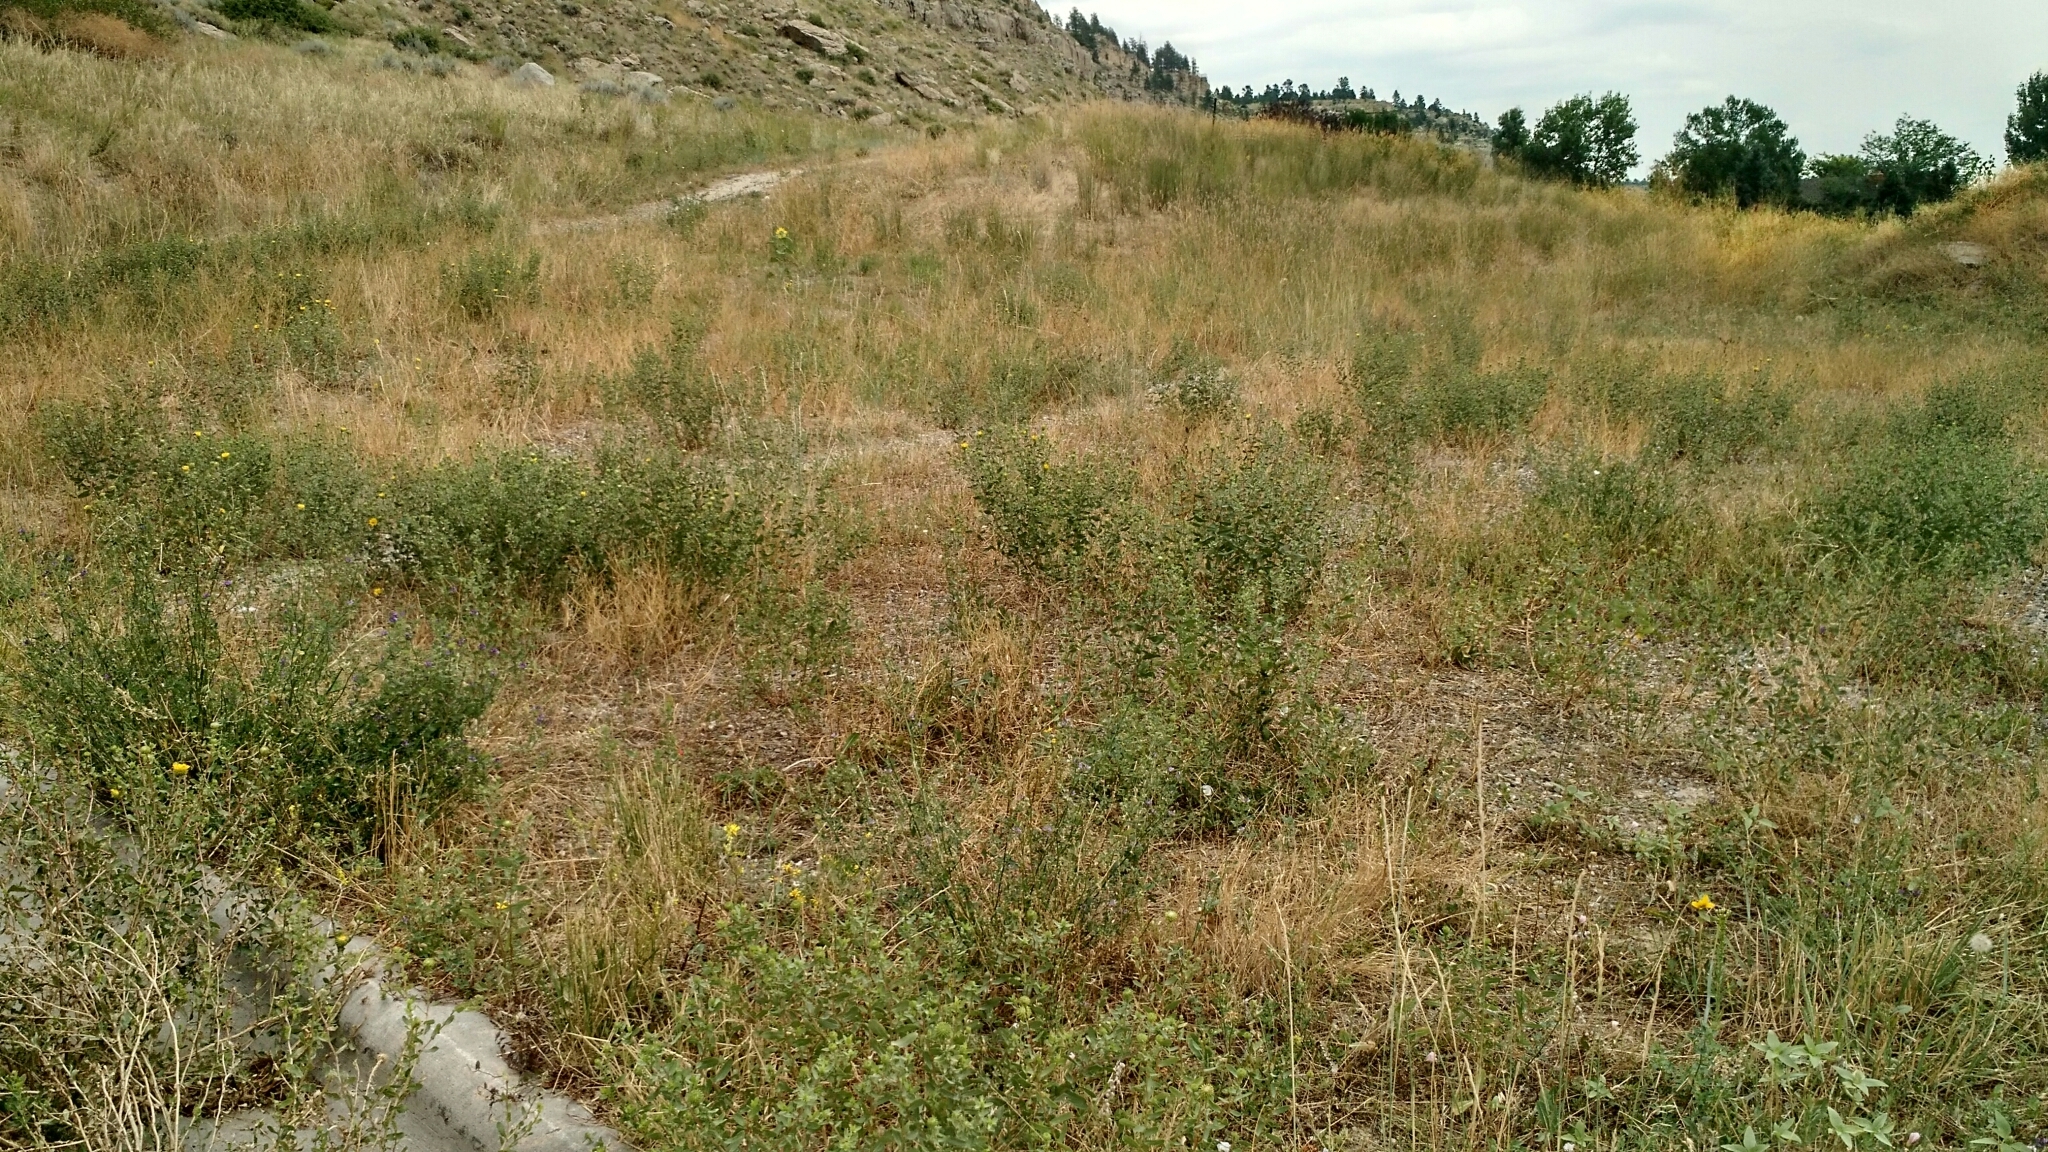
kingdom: Plantae
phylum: Tracheophyta
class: Magnoliopsida
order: Asterales
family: Asteraceae
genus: Grindelia
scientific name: Grindelia squarrosa
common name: Curly-cup gumweed
